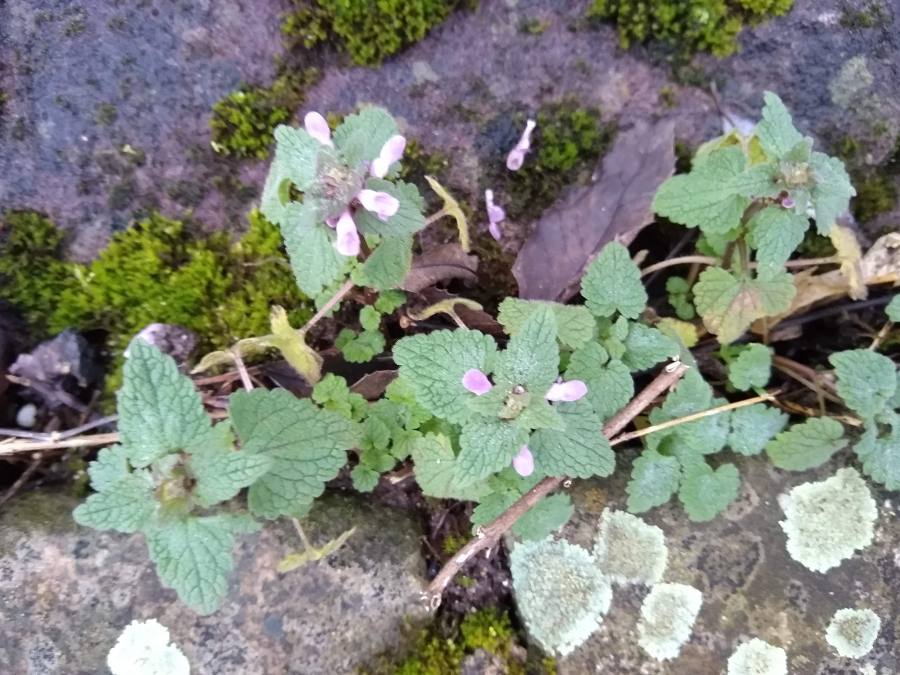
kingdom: Plantae
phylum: Tracheophyta
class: Magnoliopsida
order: Lamiales
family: Lamiaceae
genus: Lamium
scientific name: Lamium purpureum
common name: Red dead-nettle
